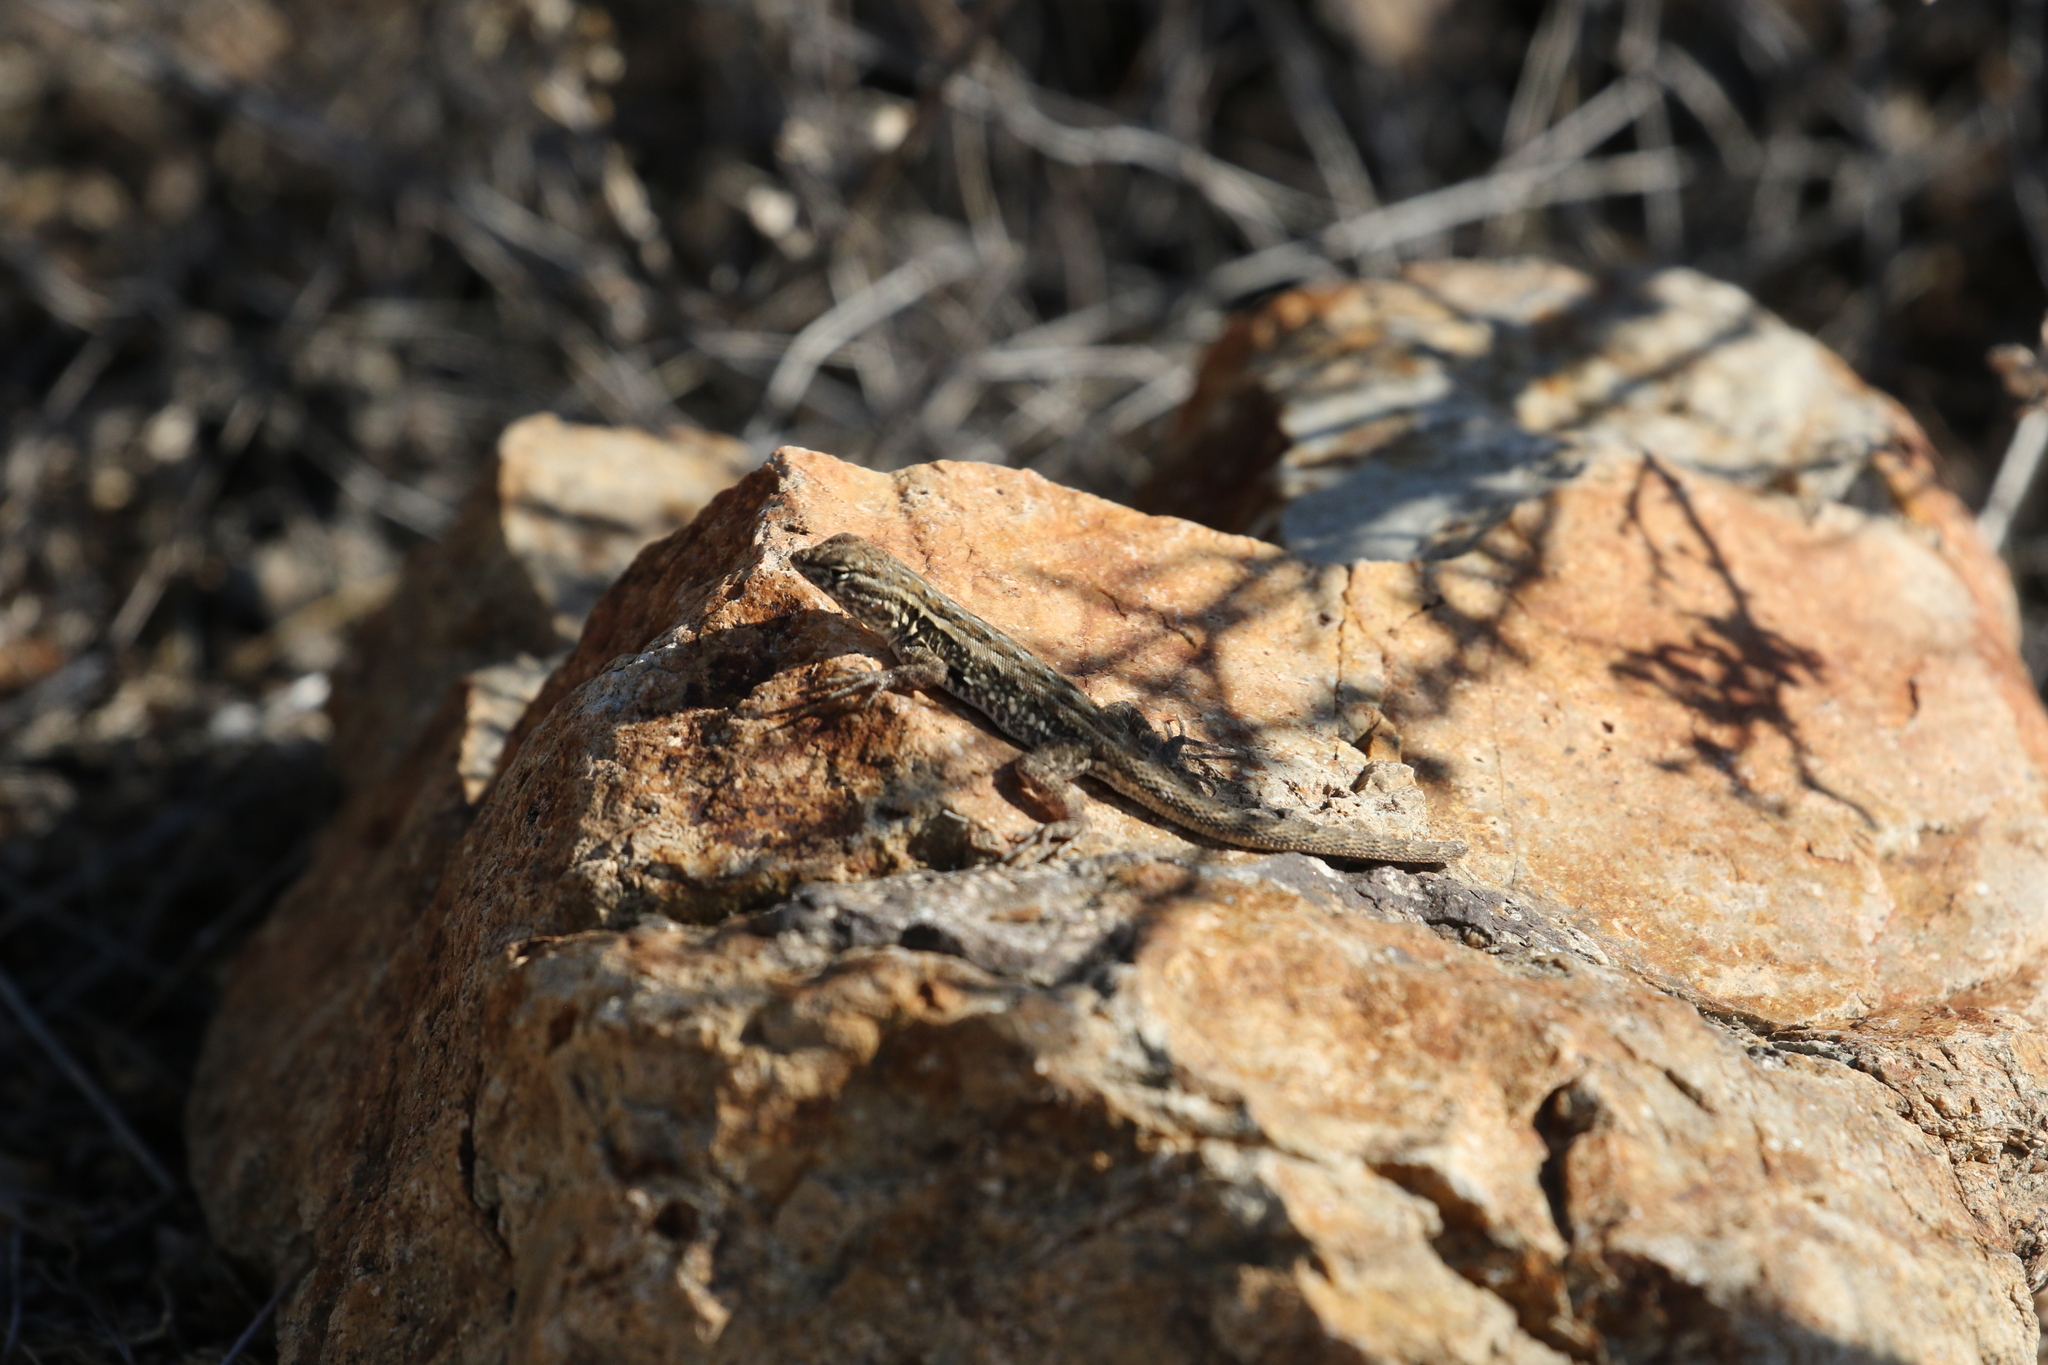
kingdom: Animalia
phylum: Chordata
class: Squamata
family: Phrynosomatidae
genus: Uta
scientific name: Uta stansburiana
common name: Side-blotched lizard
